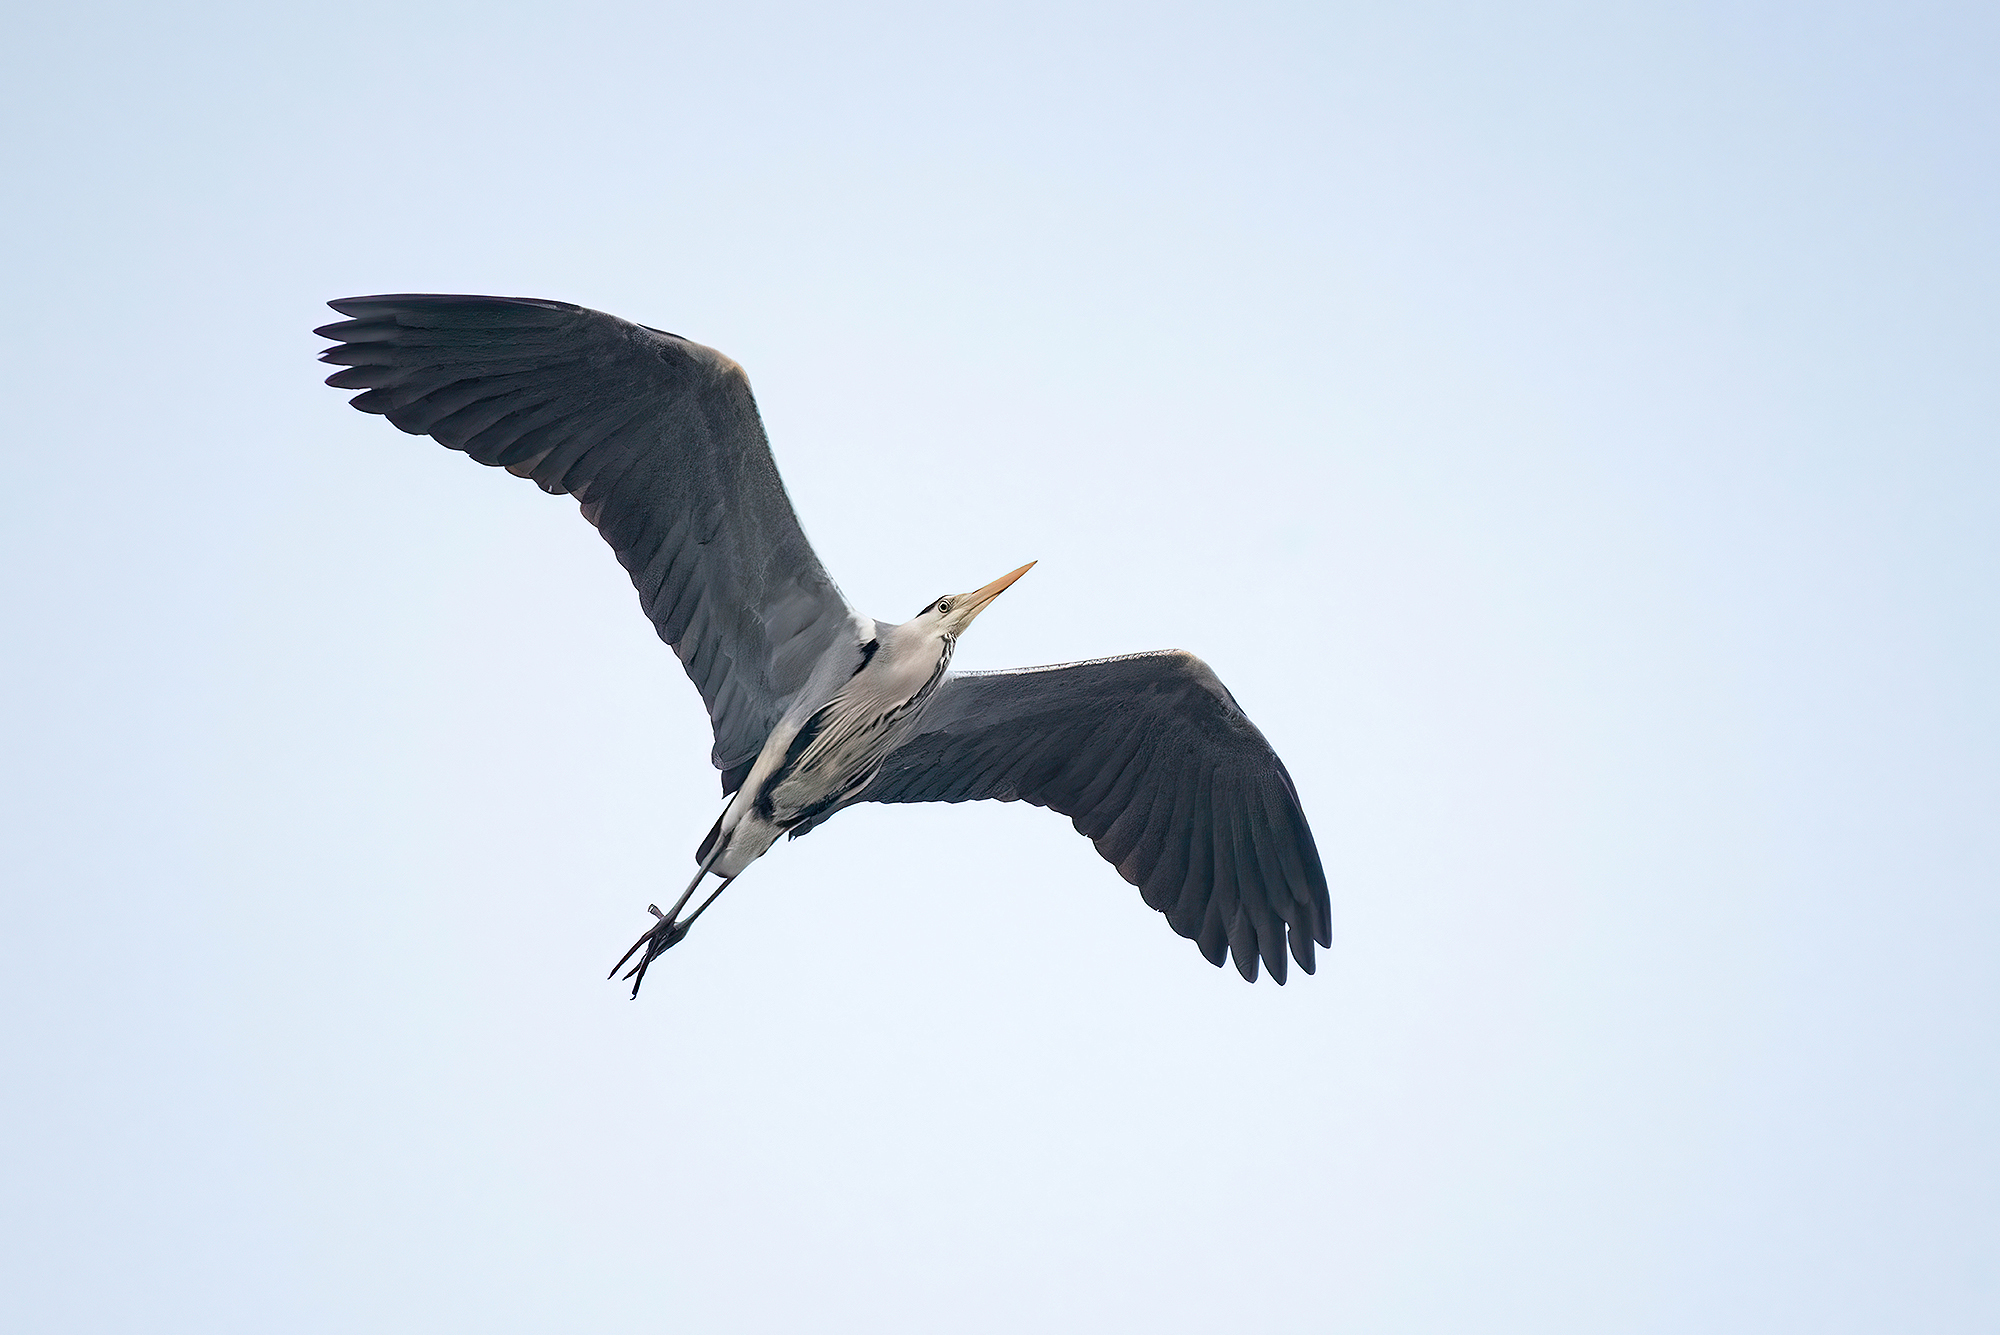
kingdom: Animalia
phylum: Chordata
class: Aves
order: Pelecaniformes
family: Ardeidae
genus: Ardea
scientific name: Ardea cinerea
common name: Grey heron
